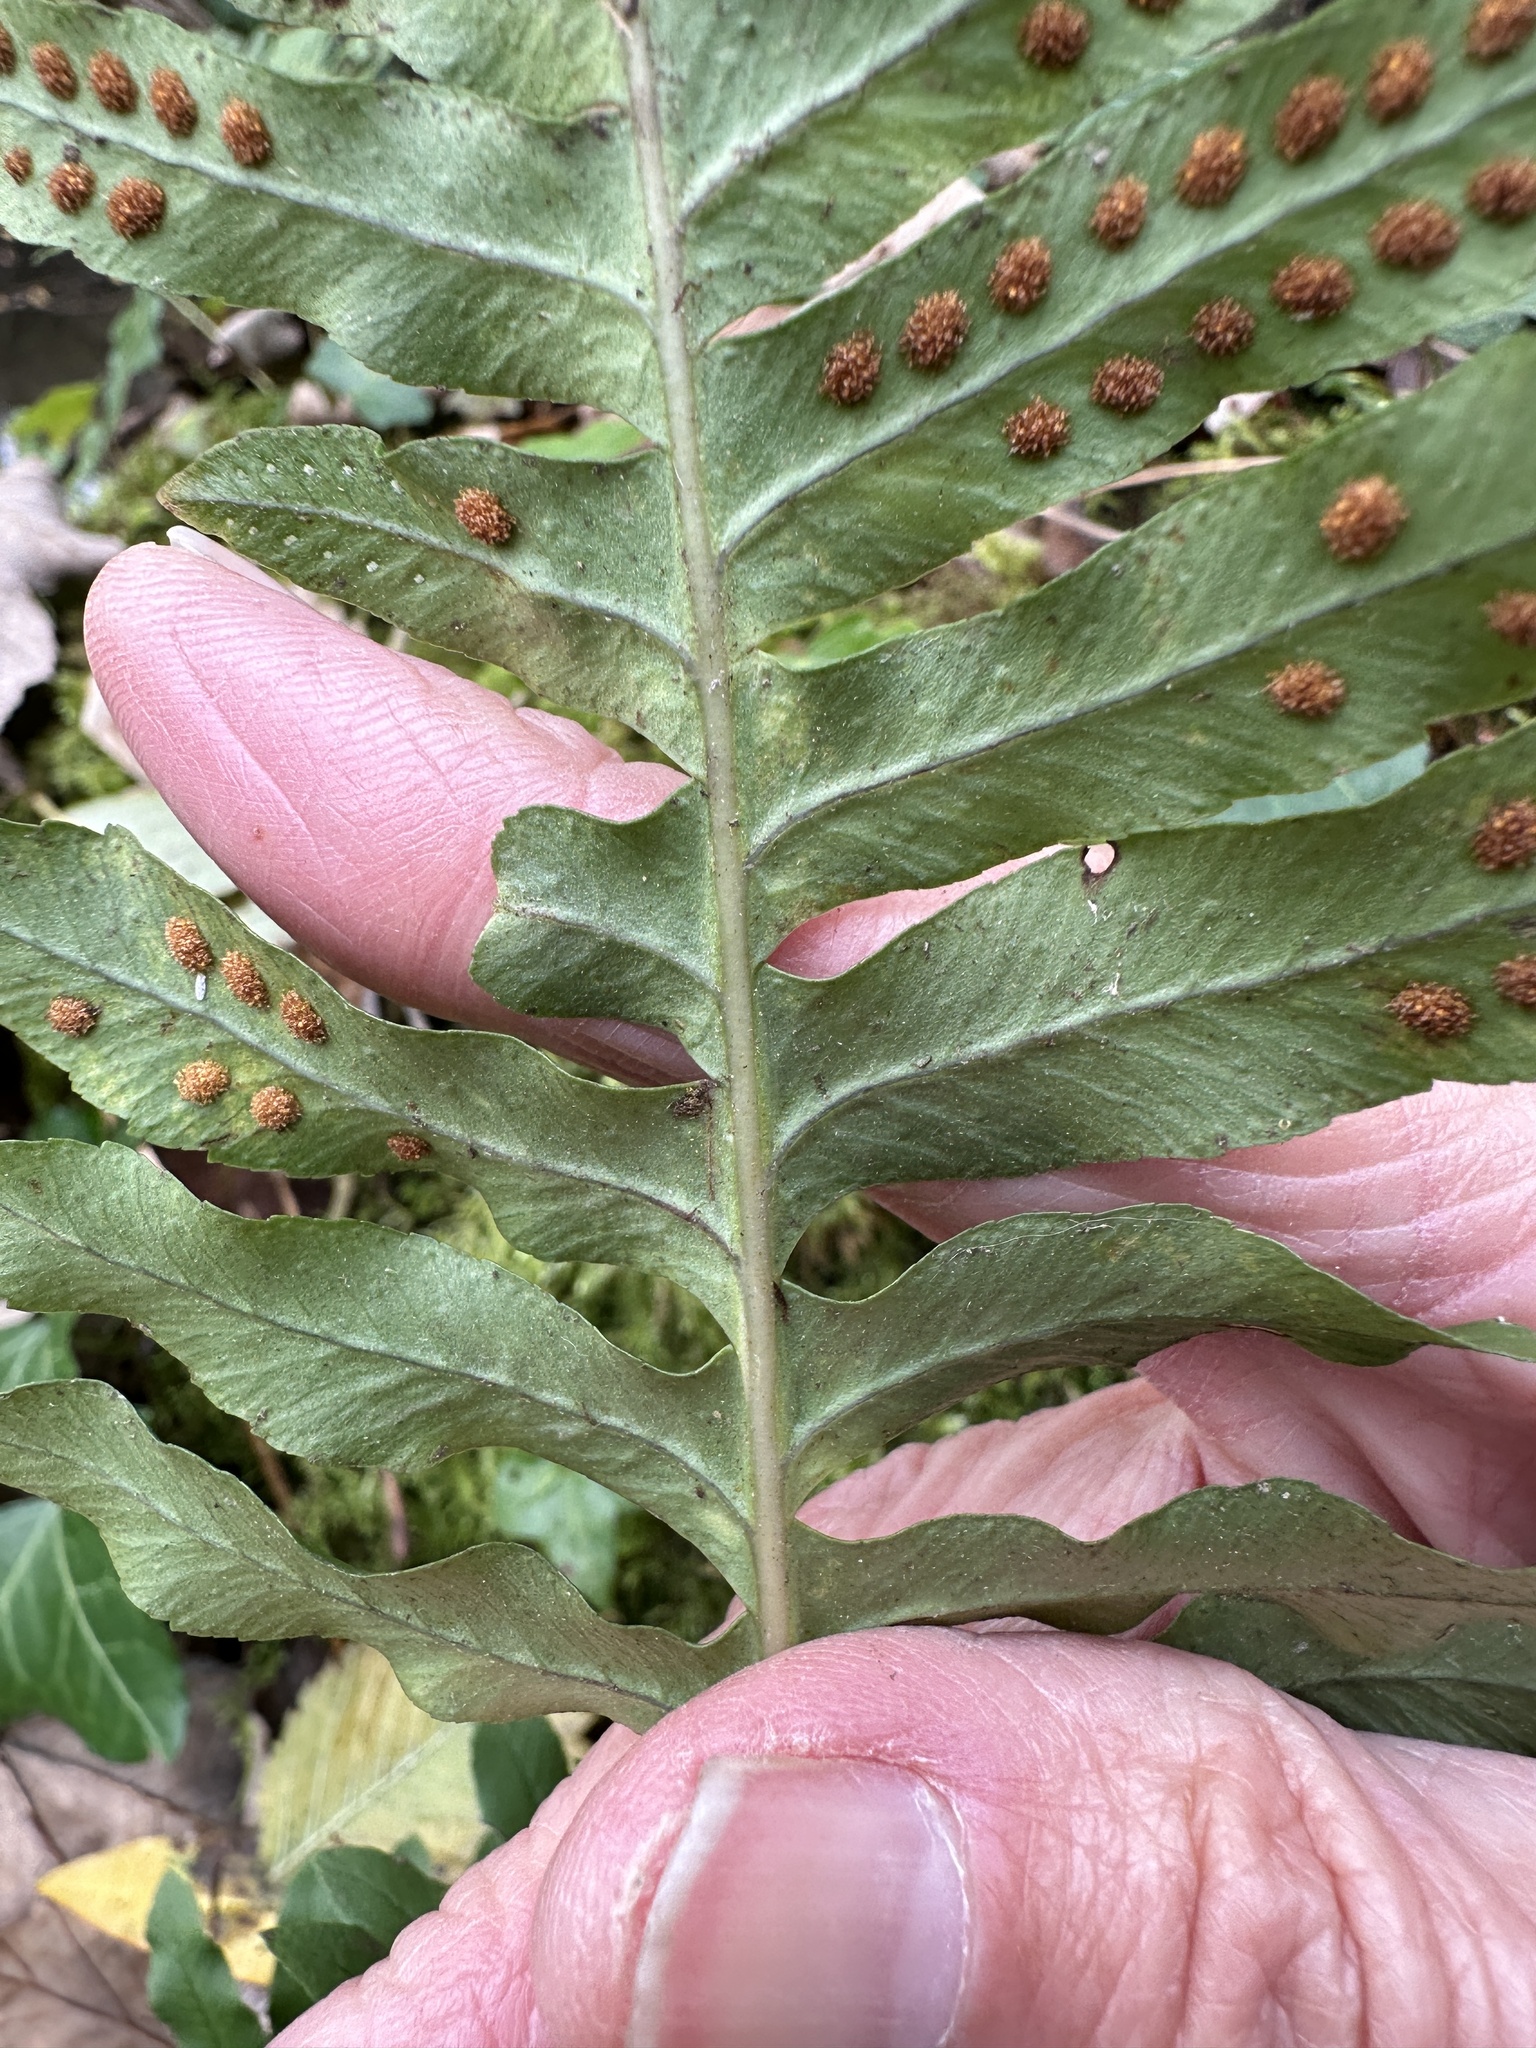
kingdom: Plantae
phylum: Tracheophyta
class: Polypodiopsida
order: Polypodiales
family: Polypodiaceae
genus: Polypodium
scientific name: Polypodium interjectum
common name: Intermediate polypody
